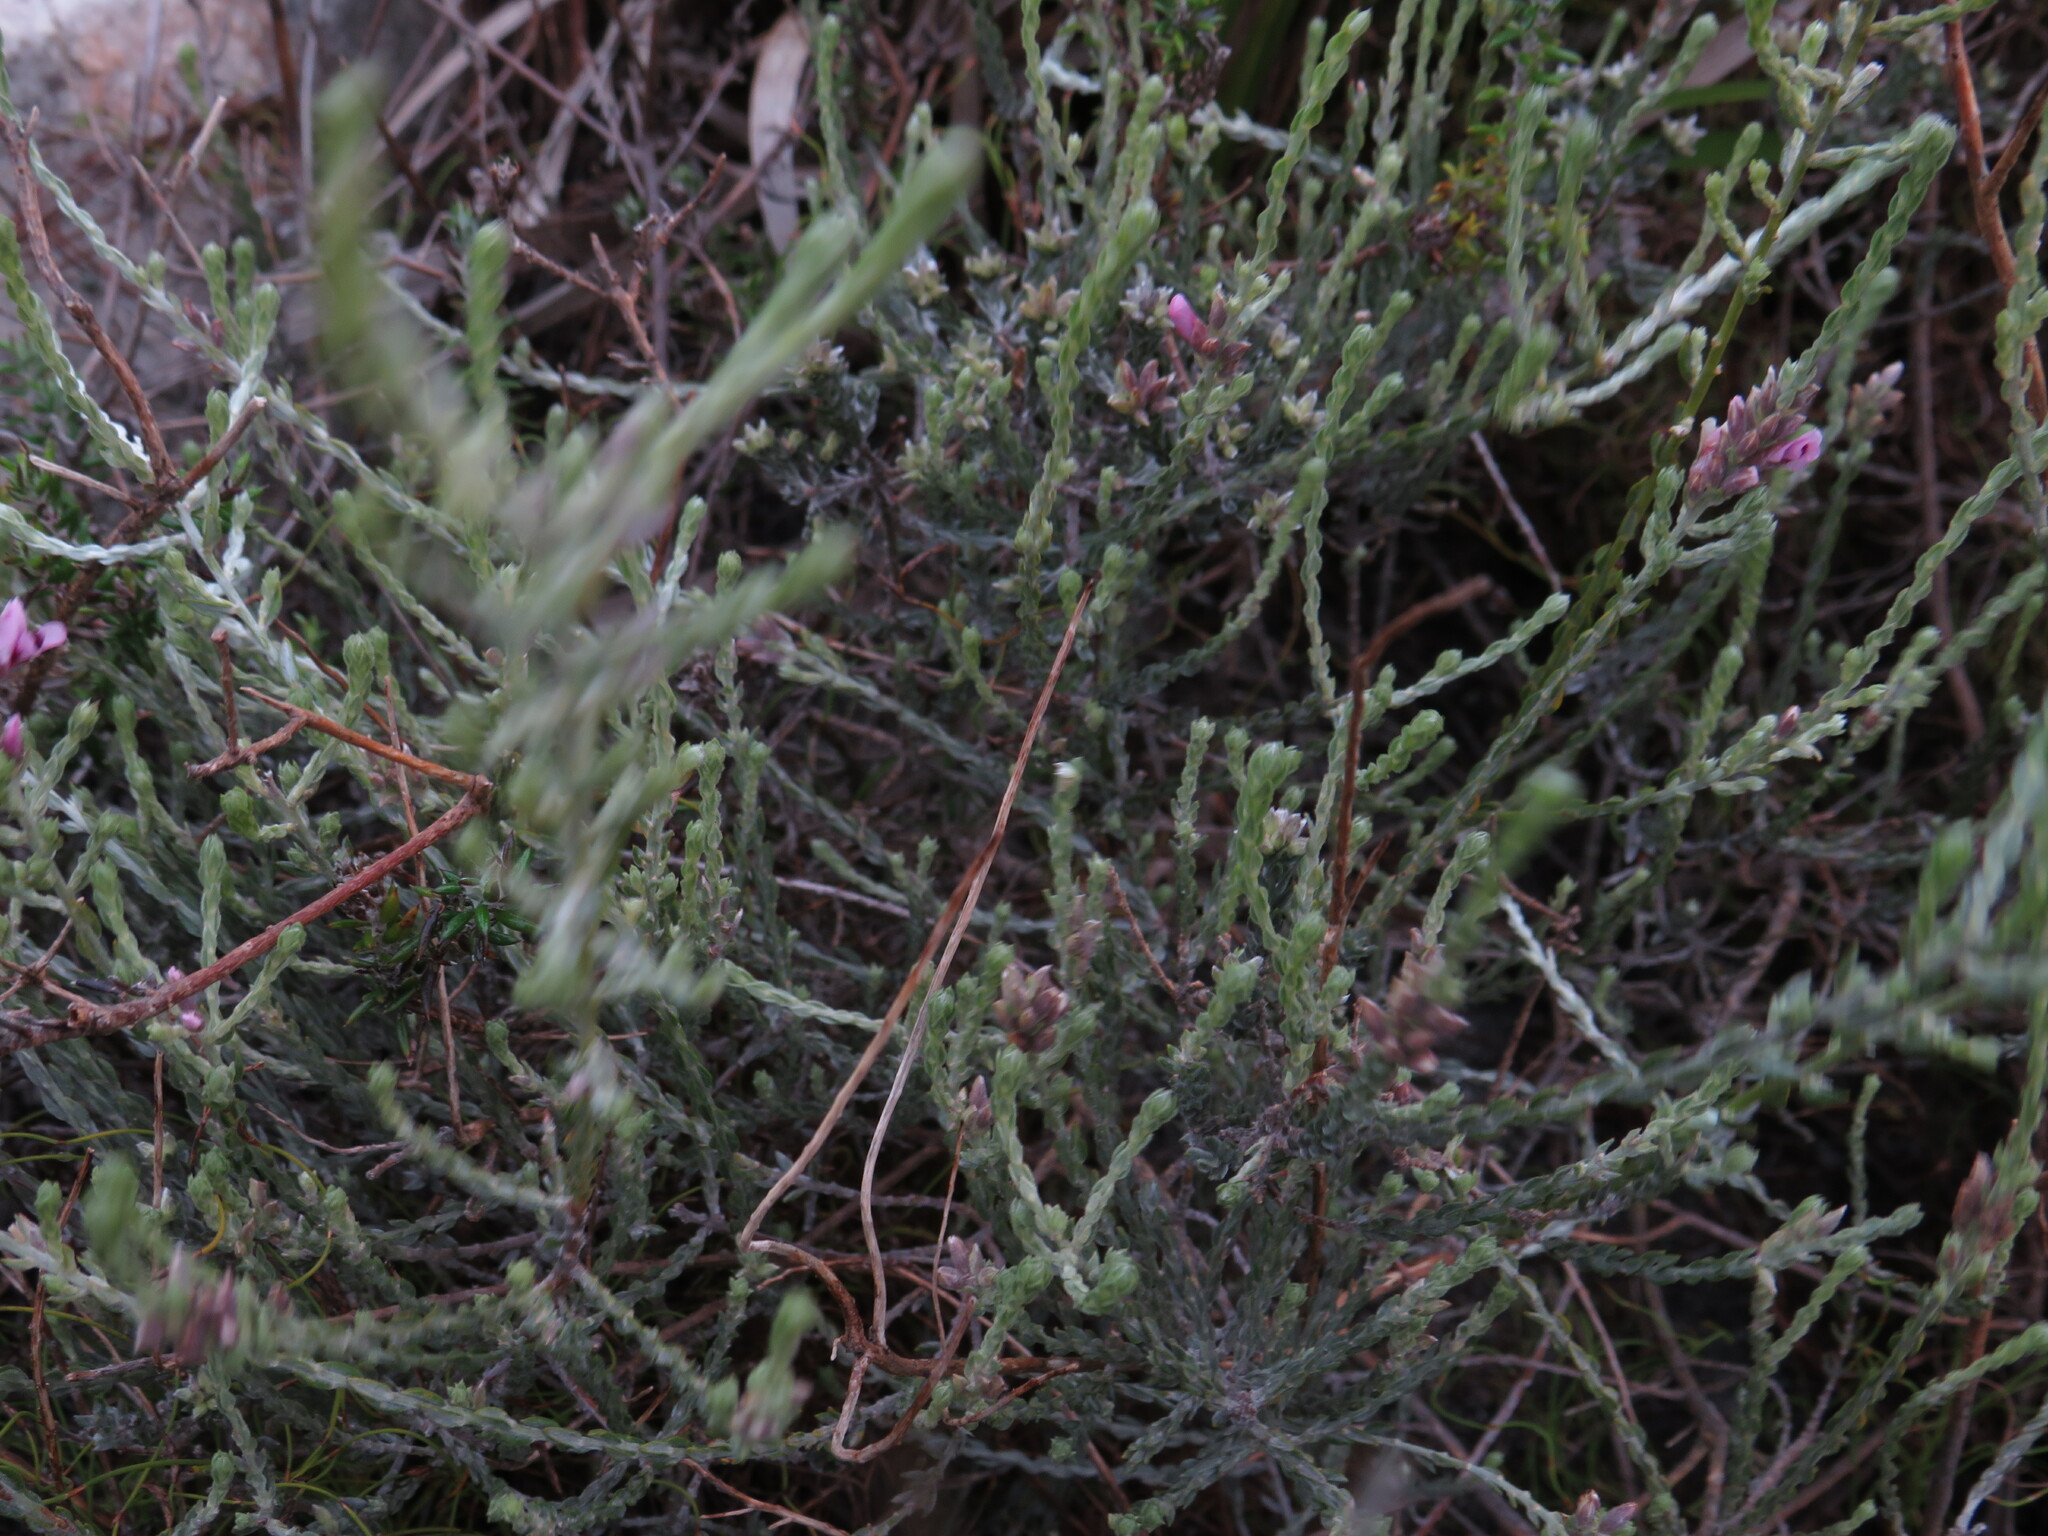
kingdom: Plantae
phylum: Tracheophyta
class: Magnoliopsida
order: Fabales
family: Fabaceae
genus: Amphithalea
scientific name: Amphithalea ericifolia
